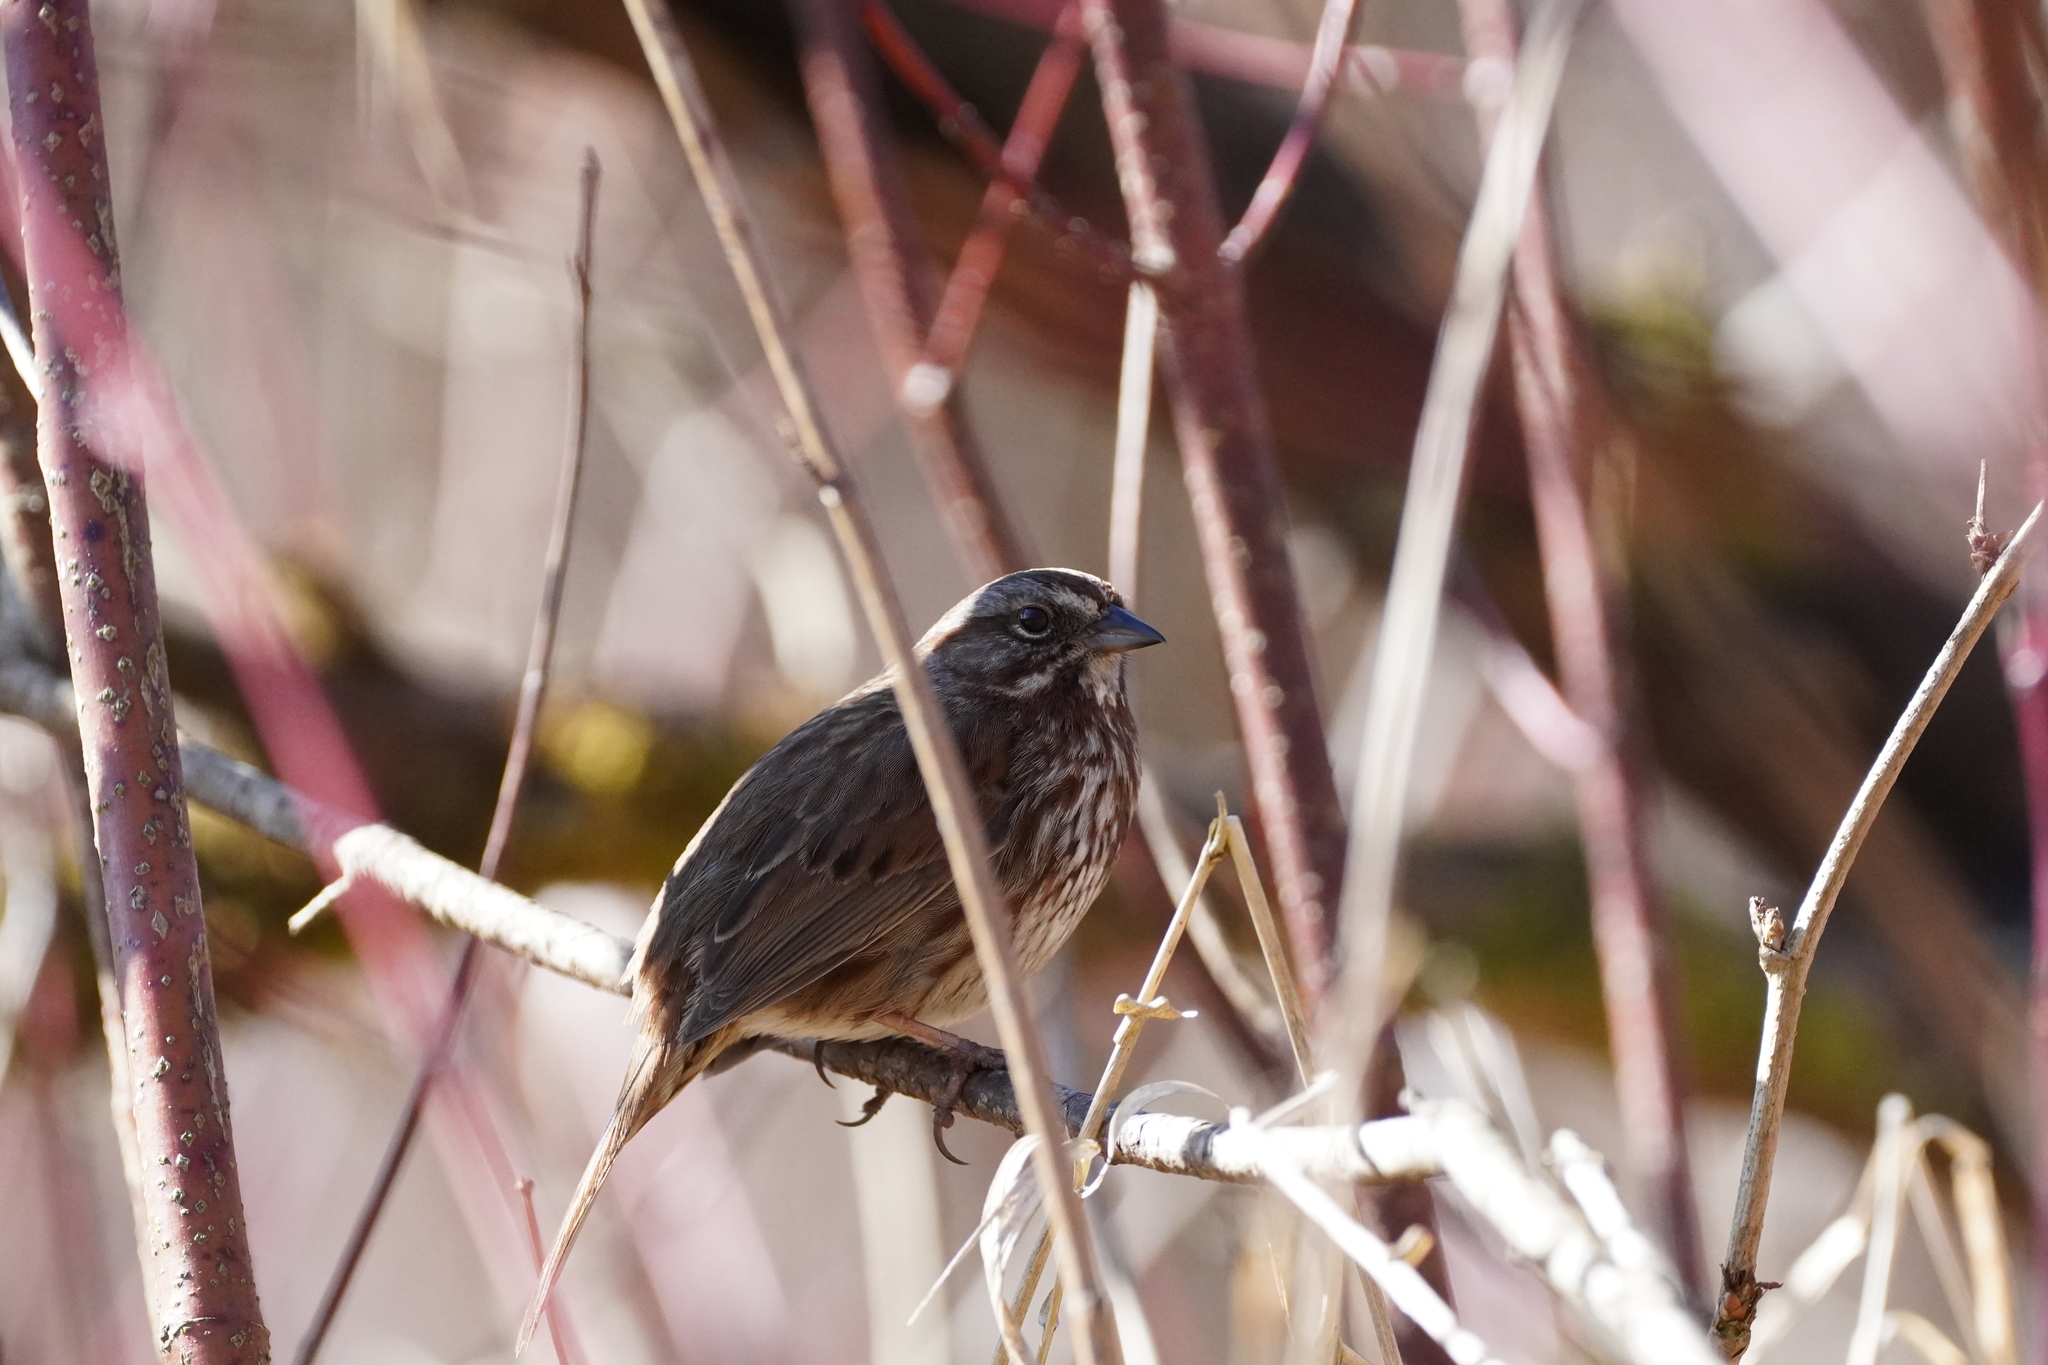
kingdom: Animalia
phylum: Chordata
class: Aves
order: Passeriformes
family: Passerellidae
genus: Melospiza
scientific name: Melospiza melodia
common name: Song sparrow
